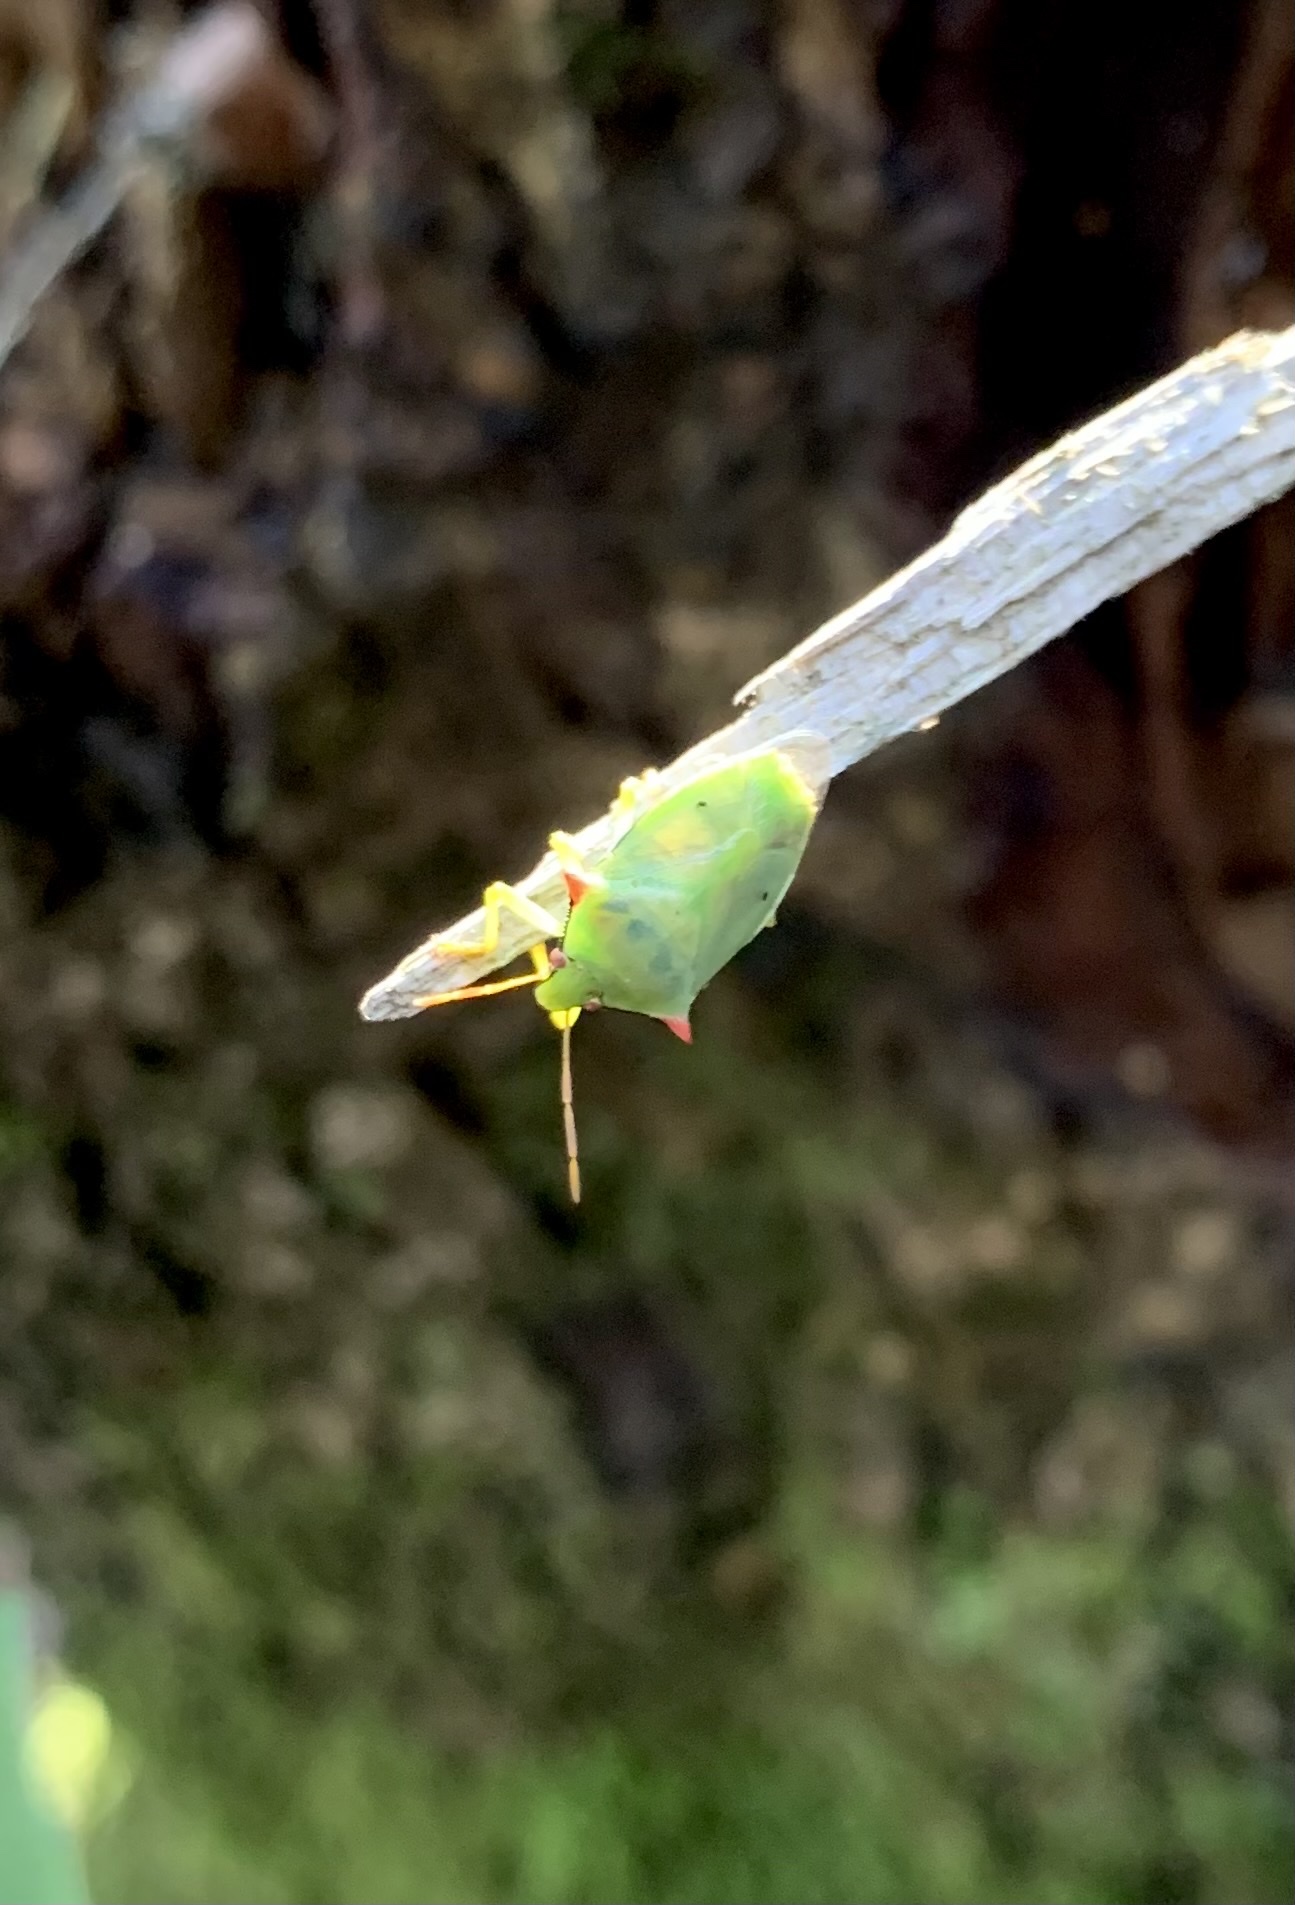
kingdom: Animalia
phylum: Arthropoda
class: Insecta
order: Hemiptera
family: Pentatomidae
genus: Brontocoris
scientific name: Brontocoris
